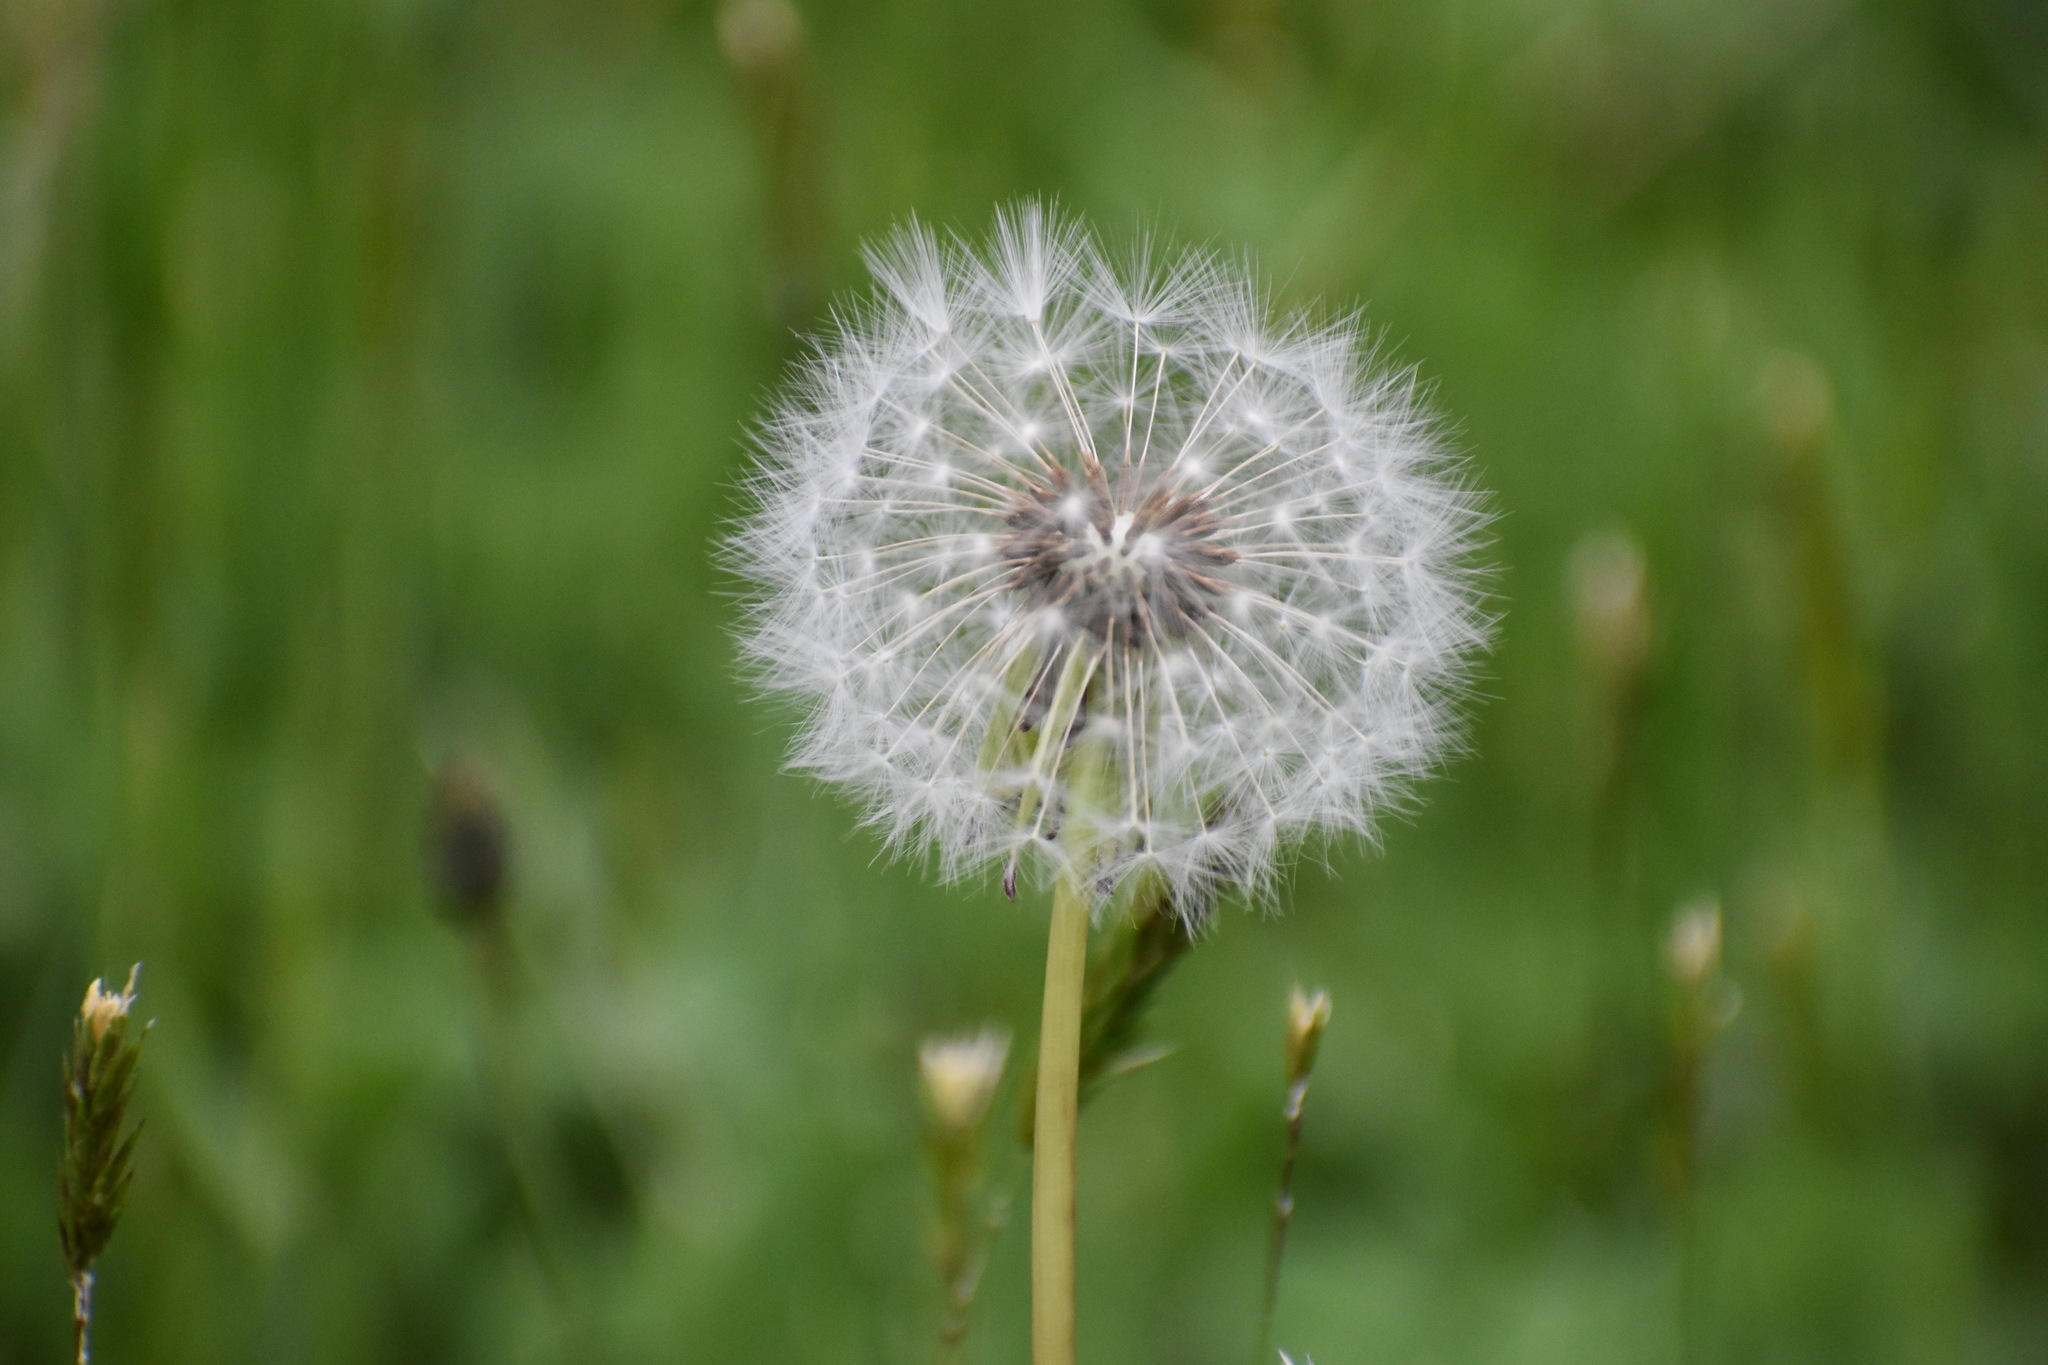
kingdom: Plantae
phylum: Tracheophyta
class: Magnoliopsida
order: Asterales
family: Asteraceae
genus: Taraxacum
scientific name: Taraxacum officinale
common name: Common dandelion
